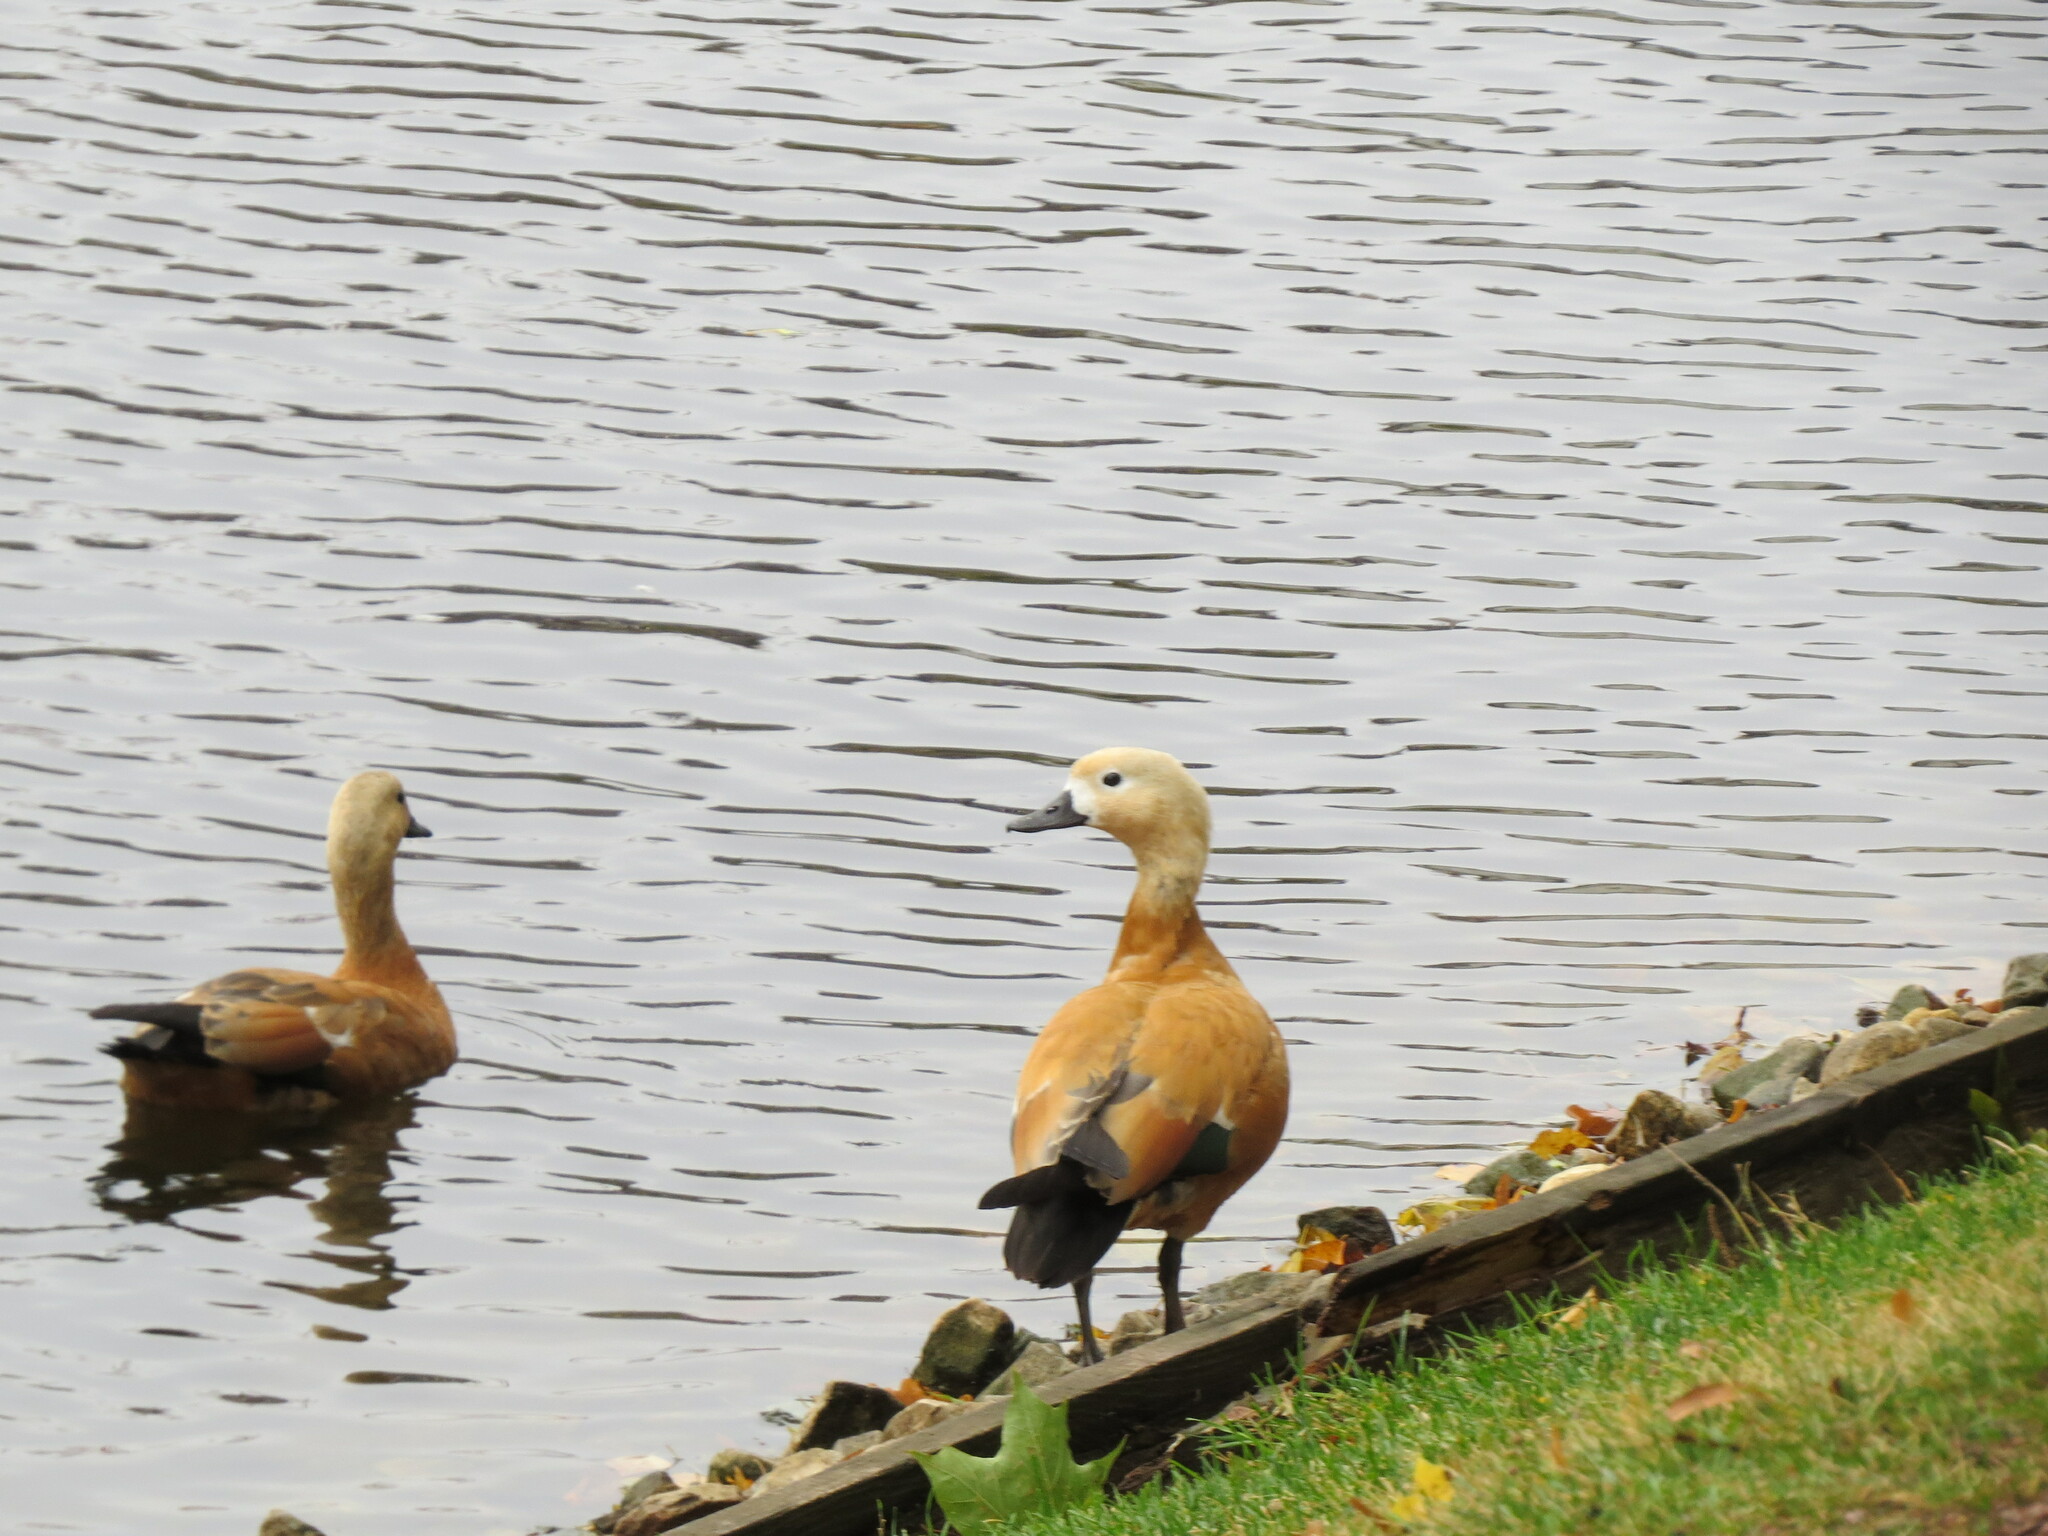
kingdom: Animalia
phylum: Chordata
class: Aves
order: Anseriformes
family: Anatidae
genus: Tadorna
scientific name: Tadorna ferruginea
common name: Ruddy shelduck
